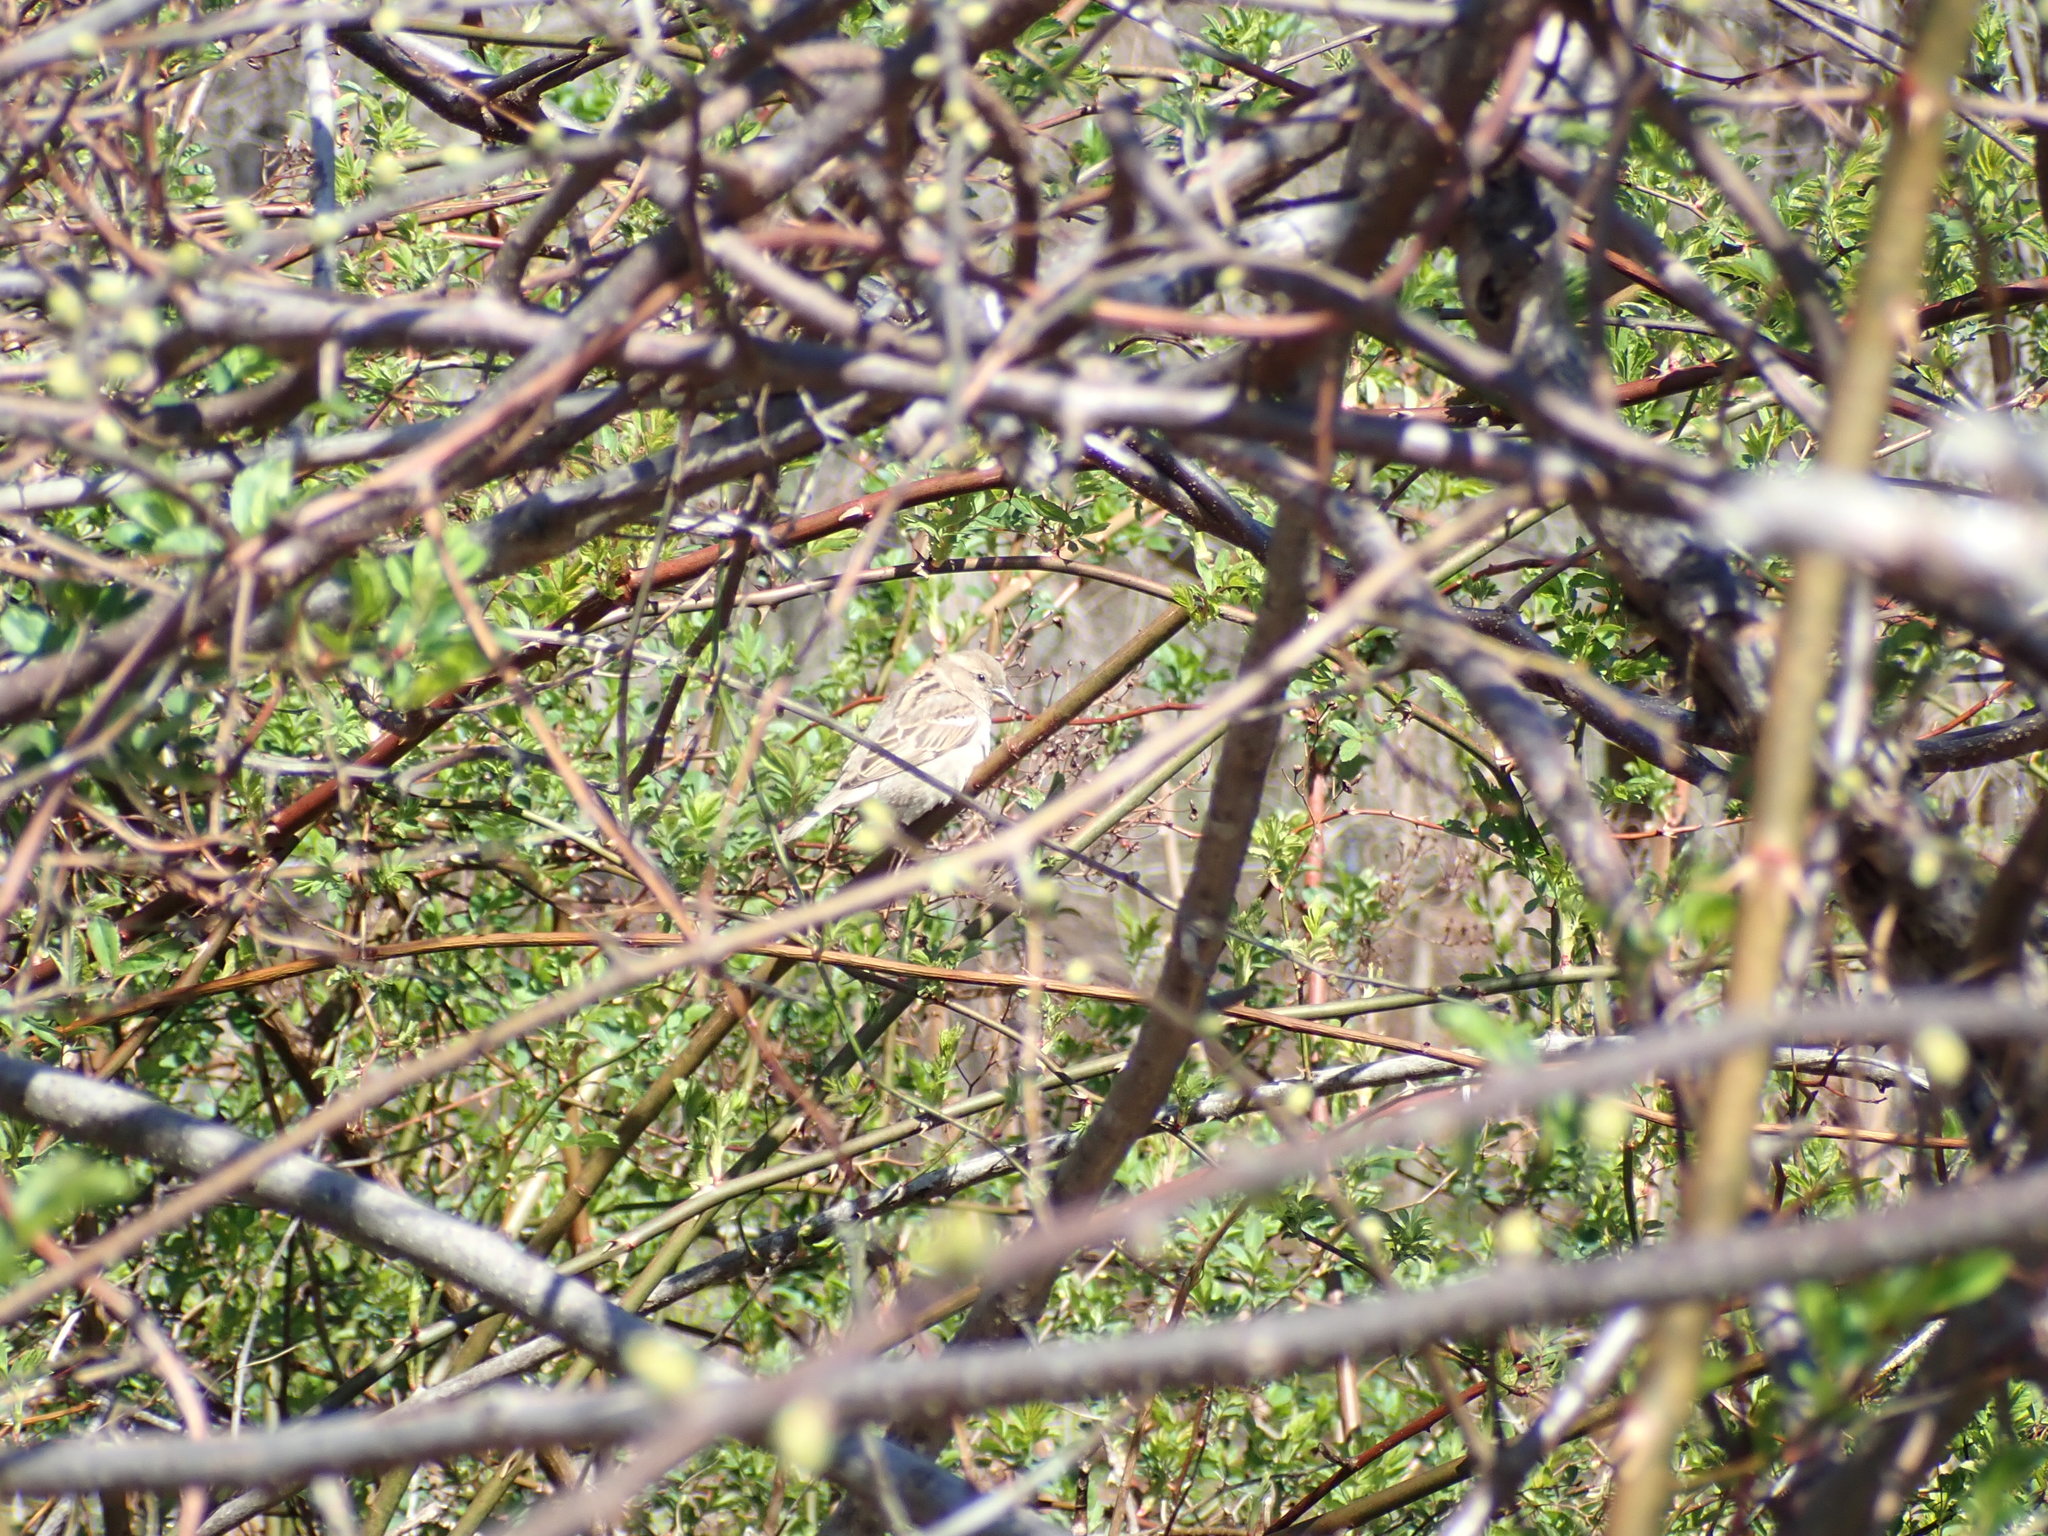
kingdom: Animalia
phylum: Chordata
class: Aves
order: Passeriformes
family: Passeridae
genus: Passer
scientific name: Passer domesticus
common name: House sparrow
